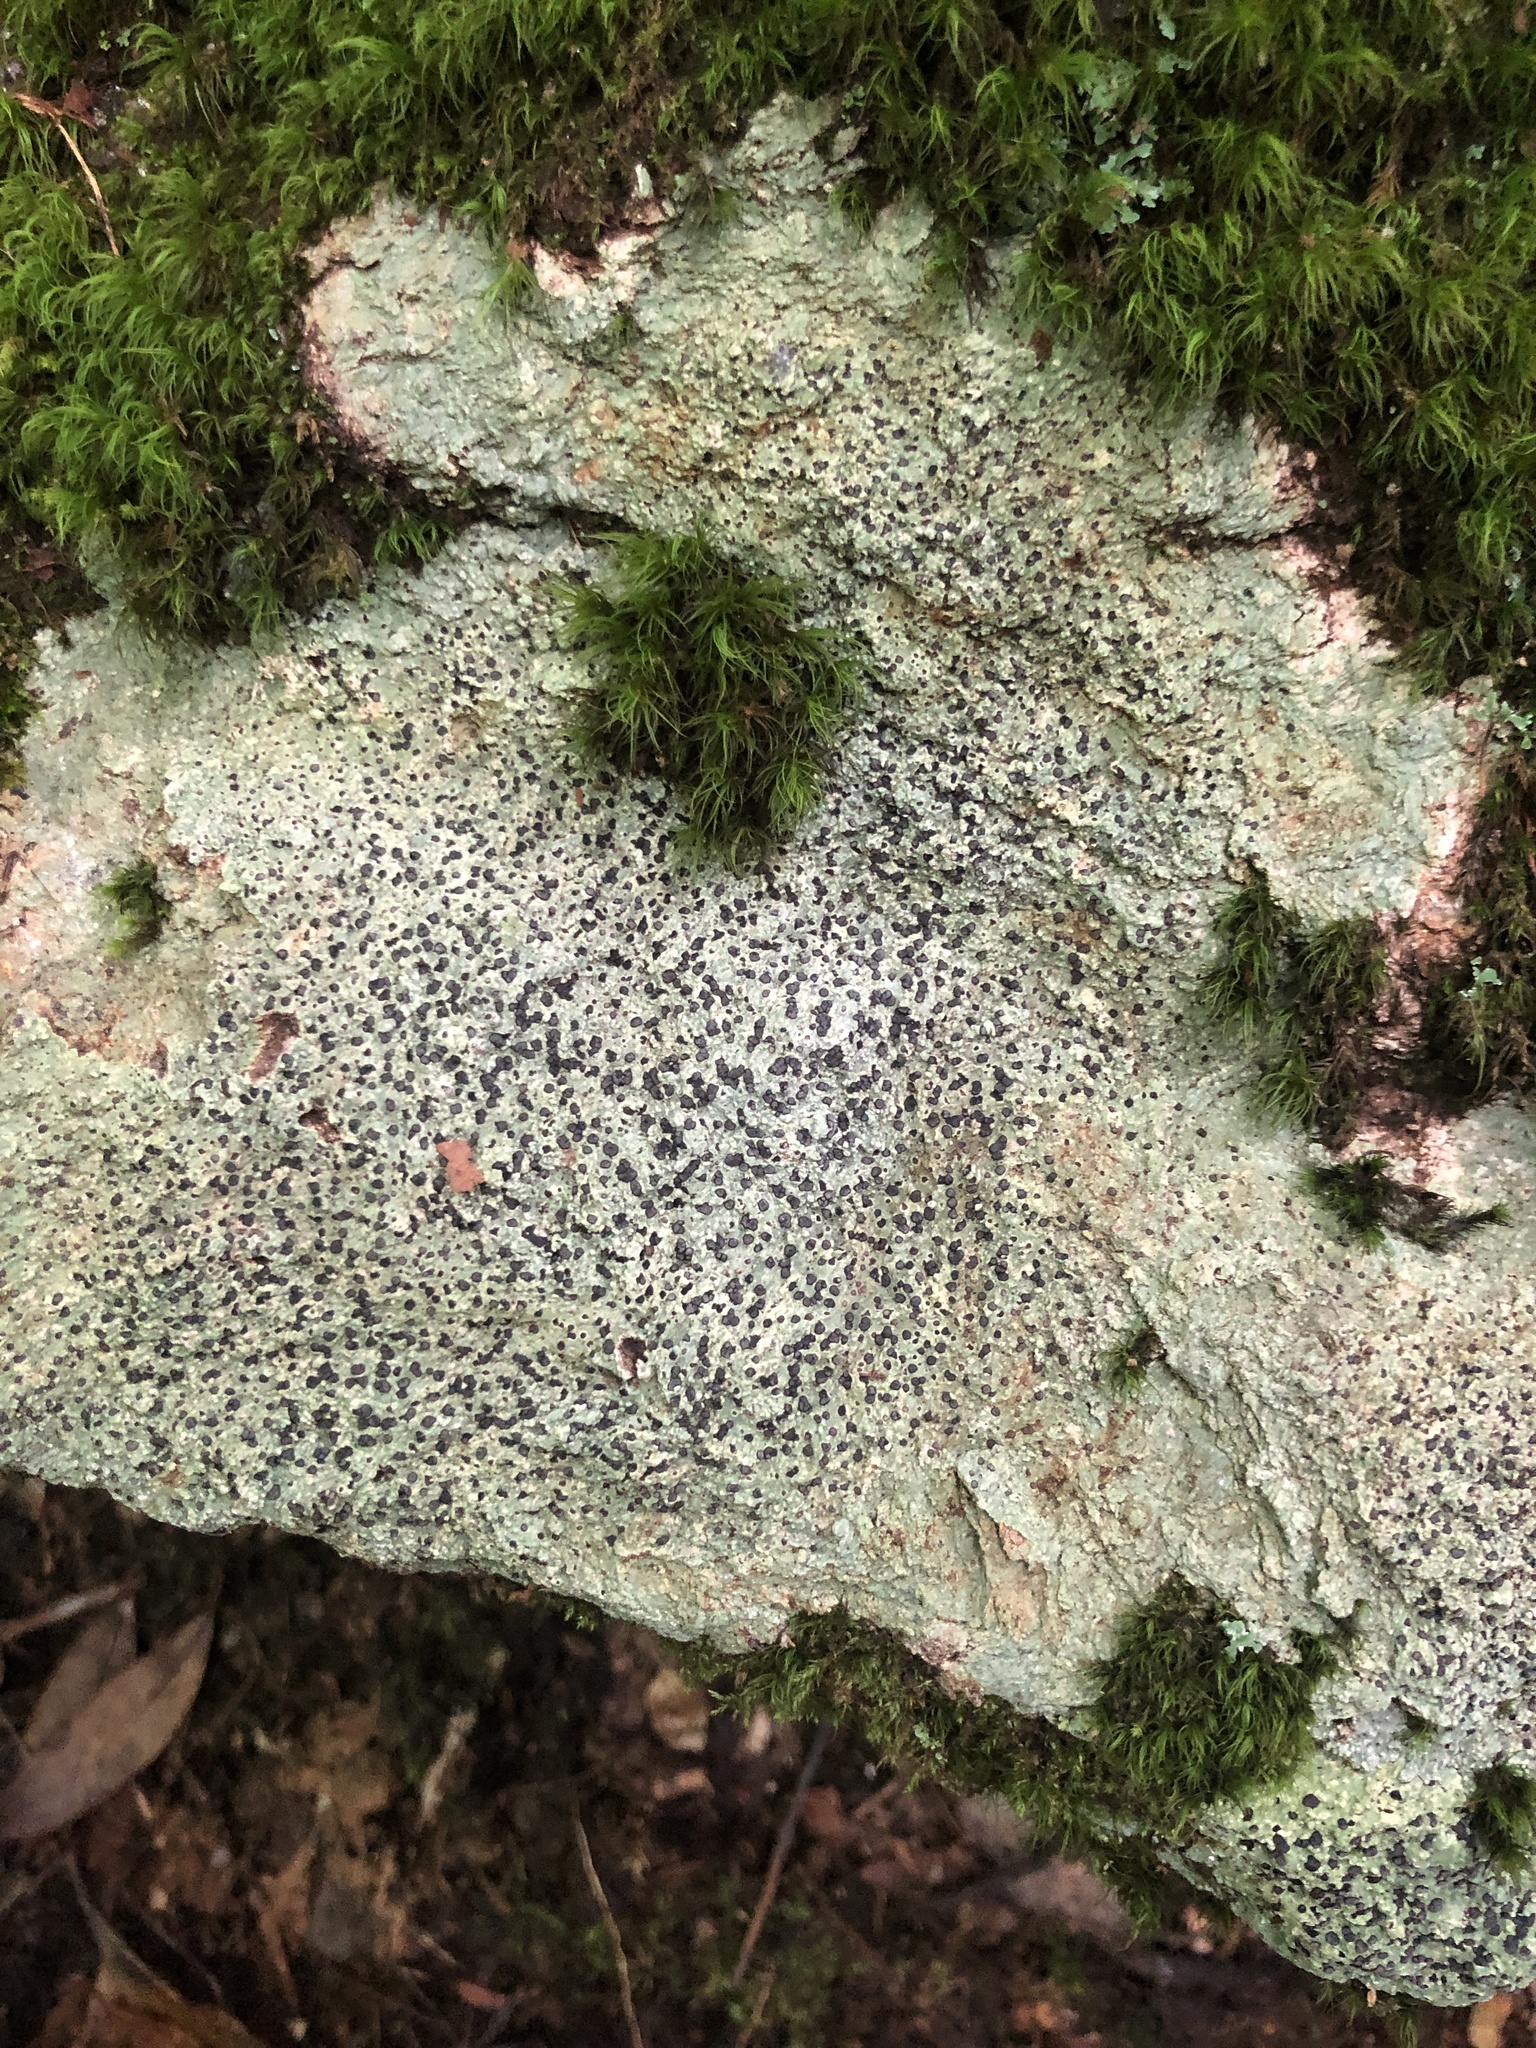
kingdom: Fungi
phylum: Ascomycota
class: Lecanoromycetes
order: Lecideales
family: Lecideaceae
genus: Porpidia
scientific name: Porpidia albocaerulescens
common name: Smokey-eyed boulder lichen
